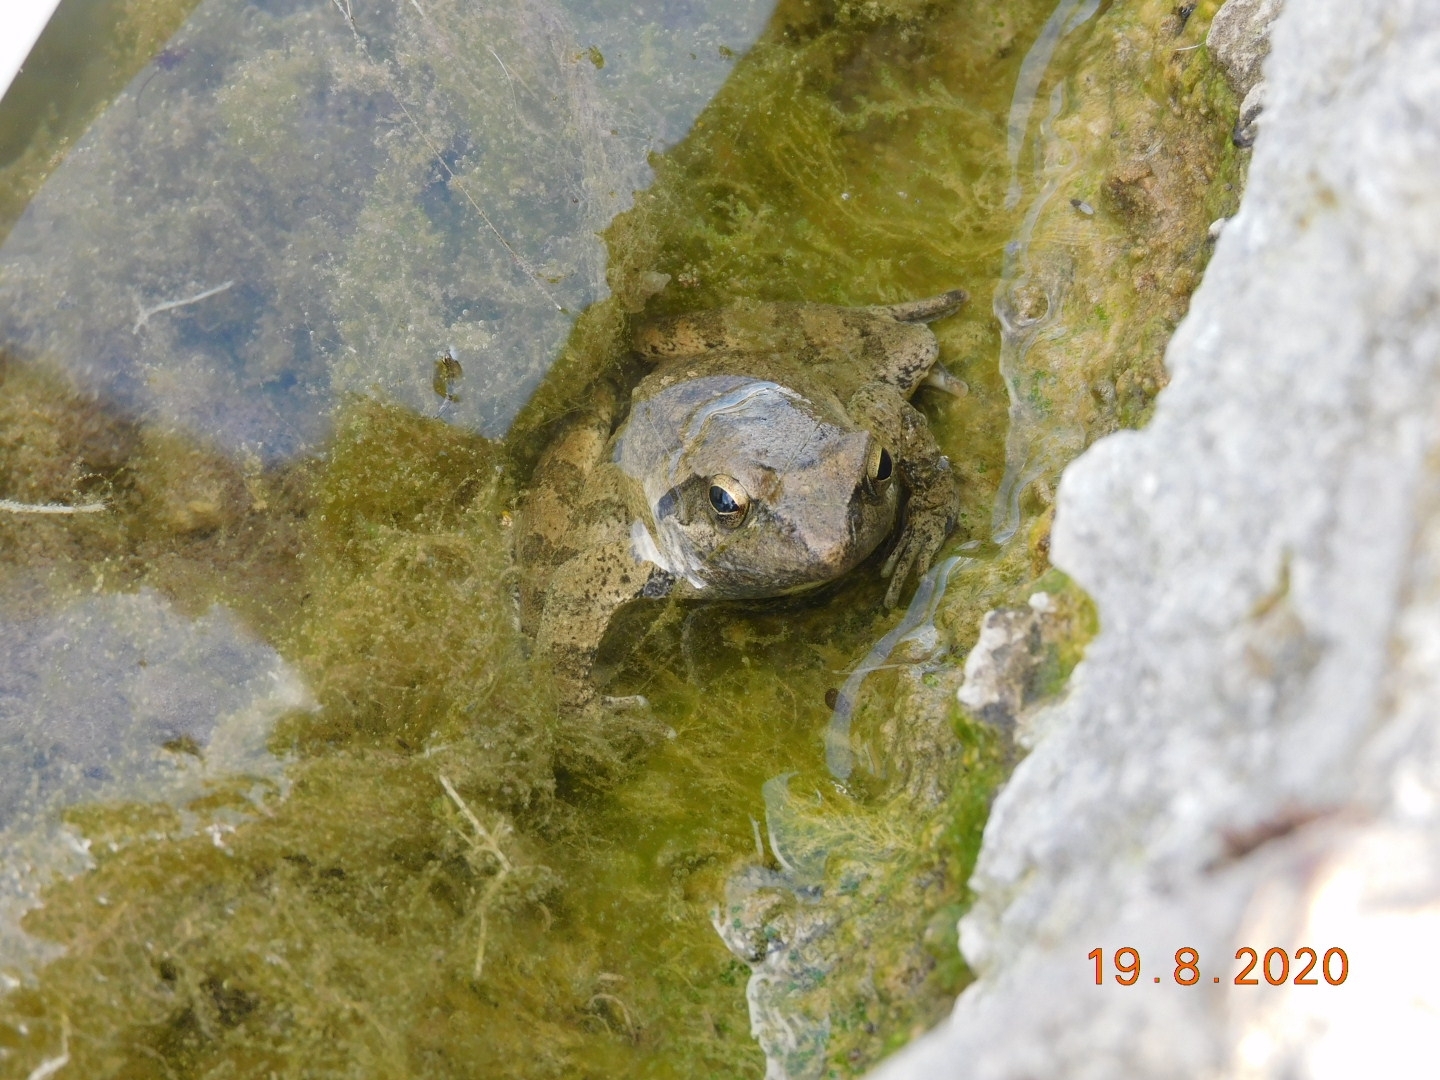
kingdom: Animalia
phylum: Chordata
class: Amphibia
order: Anura
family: Ranidae
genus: Rana
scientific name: Rana italica
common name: Italian stream frog
